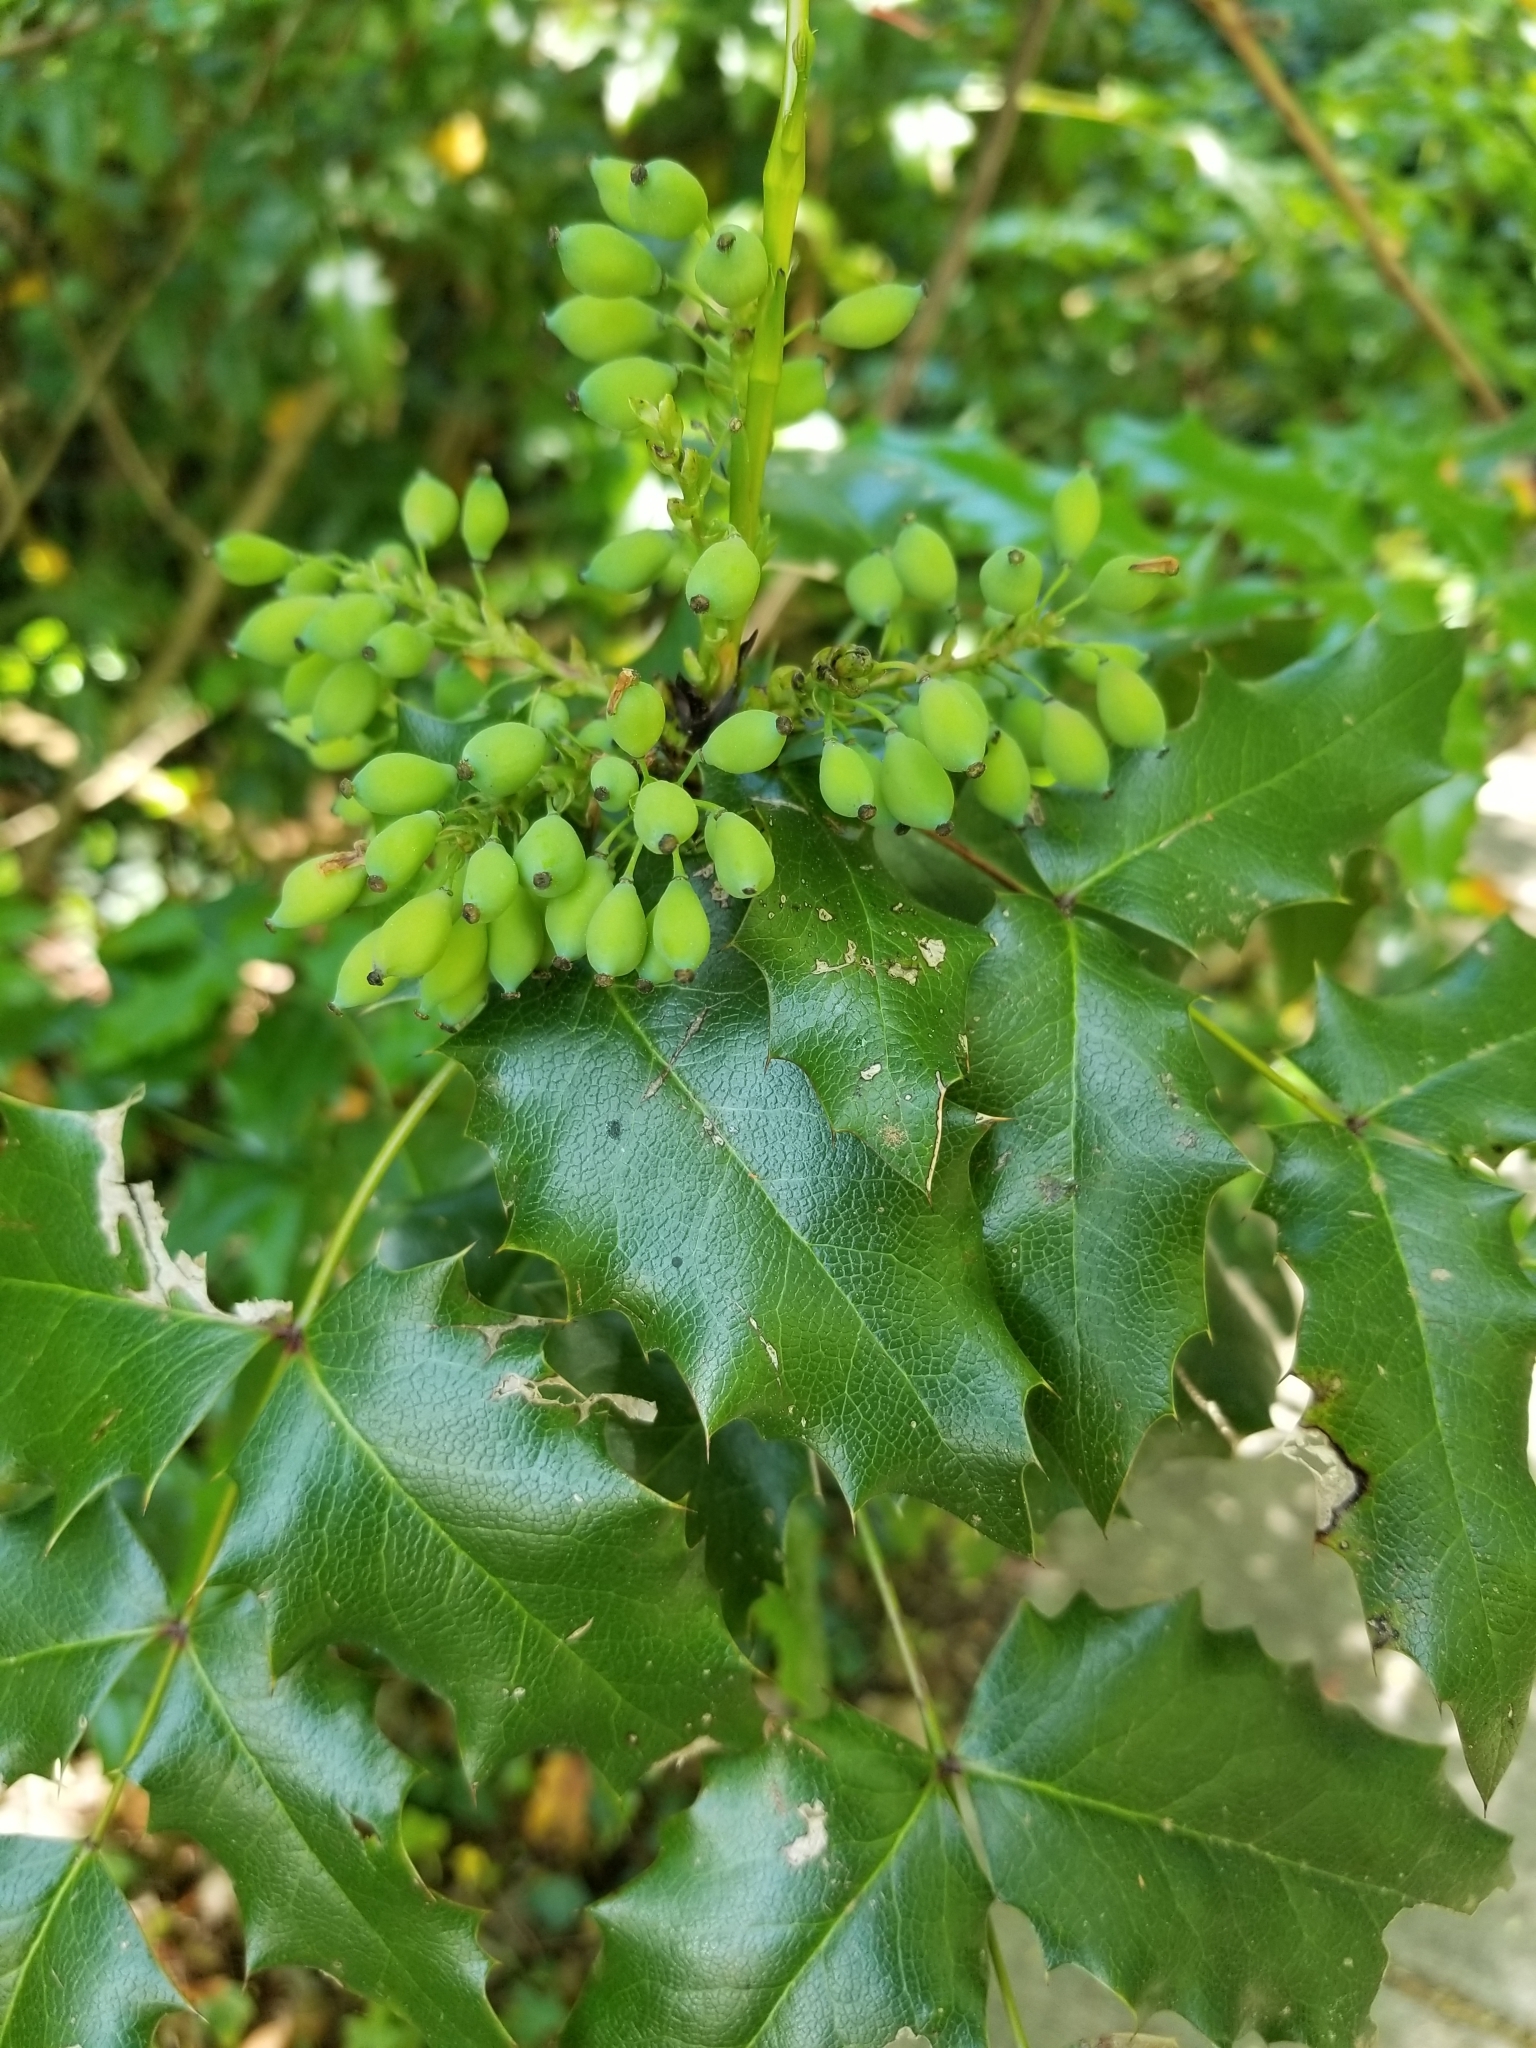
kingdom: Plantae
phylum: Tracheophyta
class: Magnoliopsida
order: Ranunculales
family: Berberidaceae
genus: Mahonia
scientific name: Mahonia aquifolium
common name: Oregon-grape
